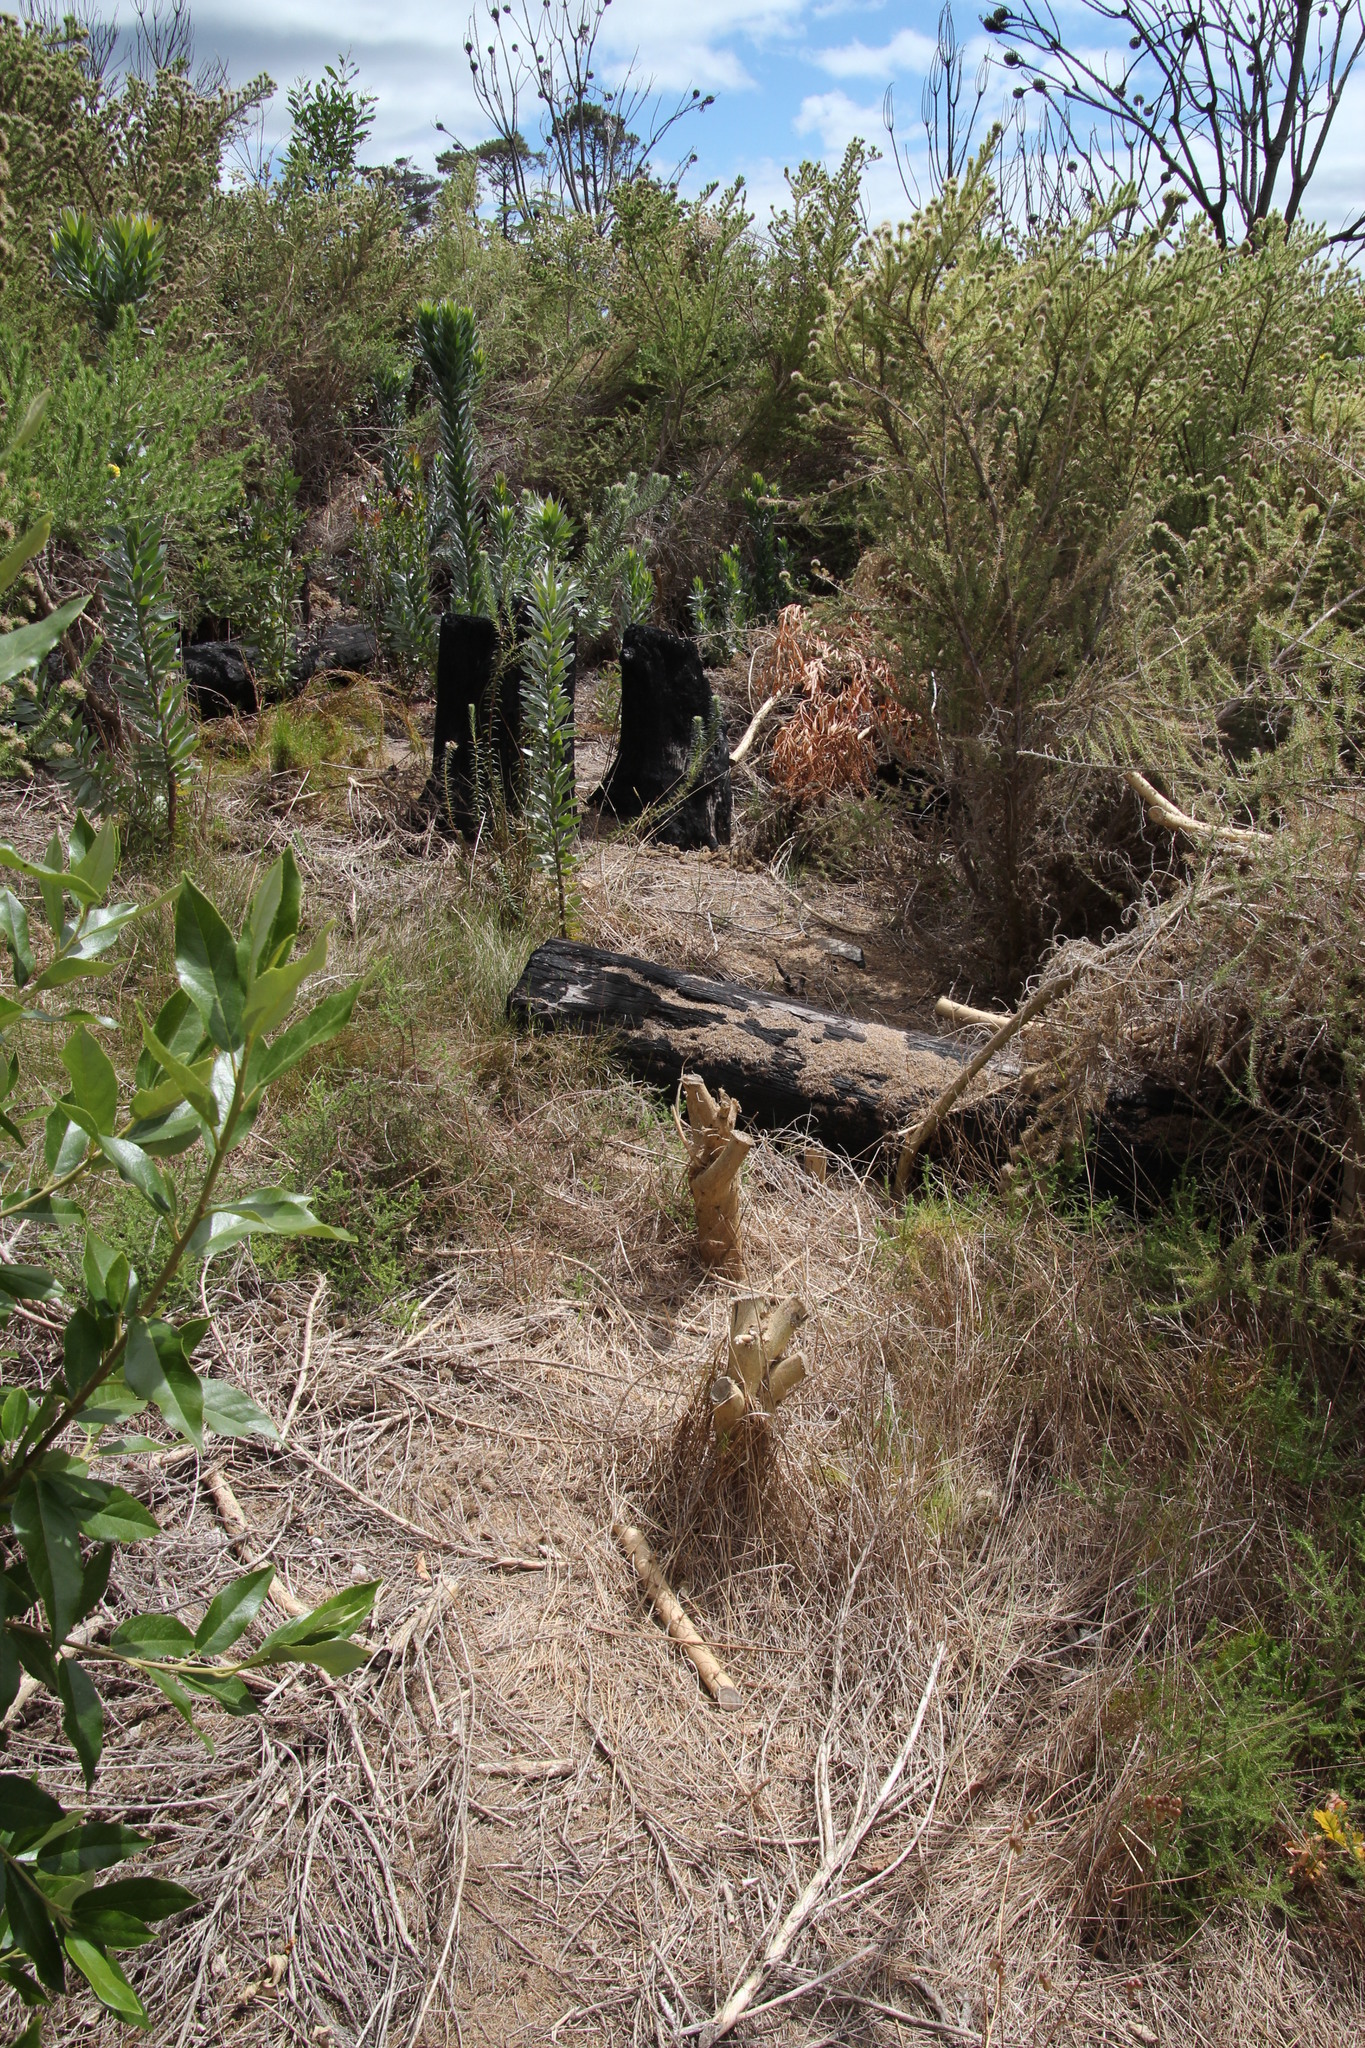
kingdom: Plantae
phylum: Tracheophyta
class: Magnoliopsida
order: Fabales
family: Fabaceae
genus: Aspalathus
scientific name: Aspalathus chenopoda
